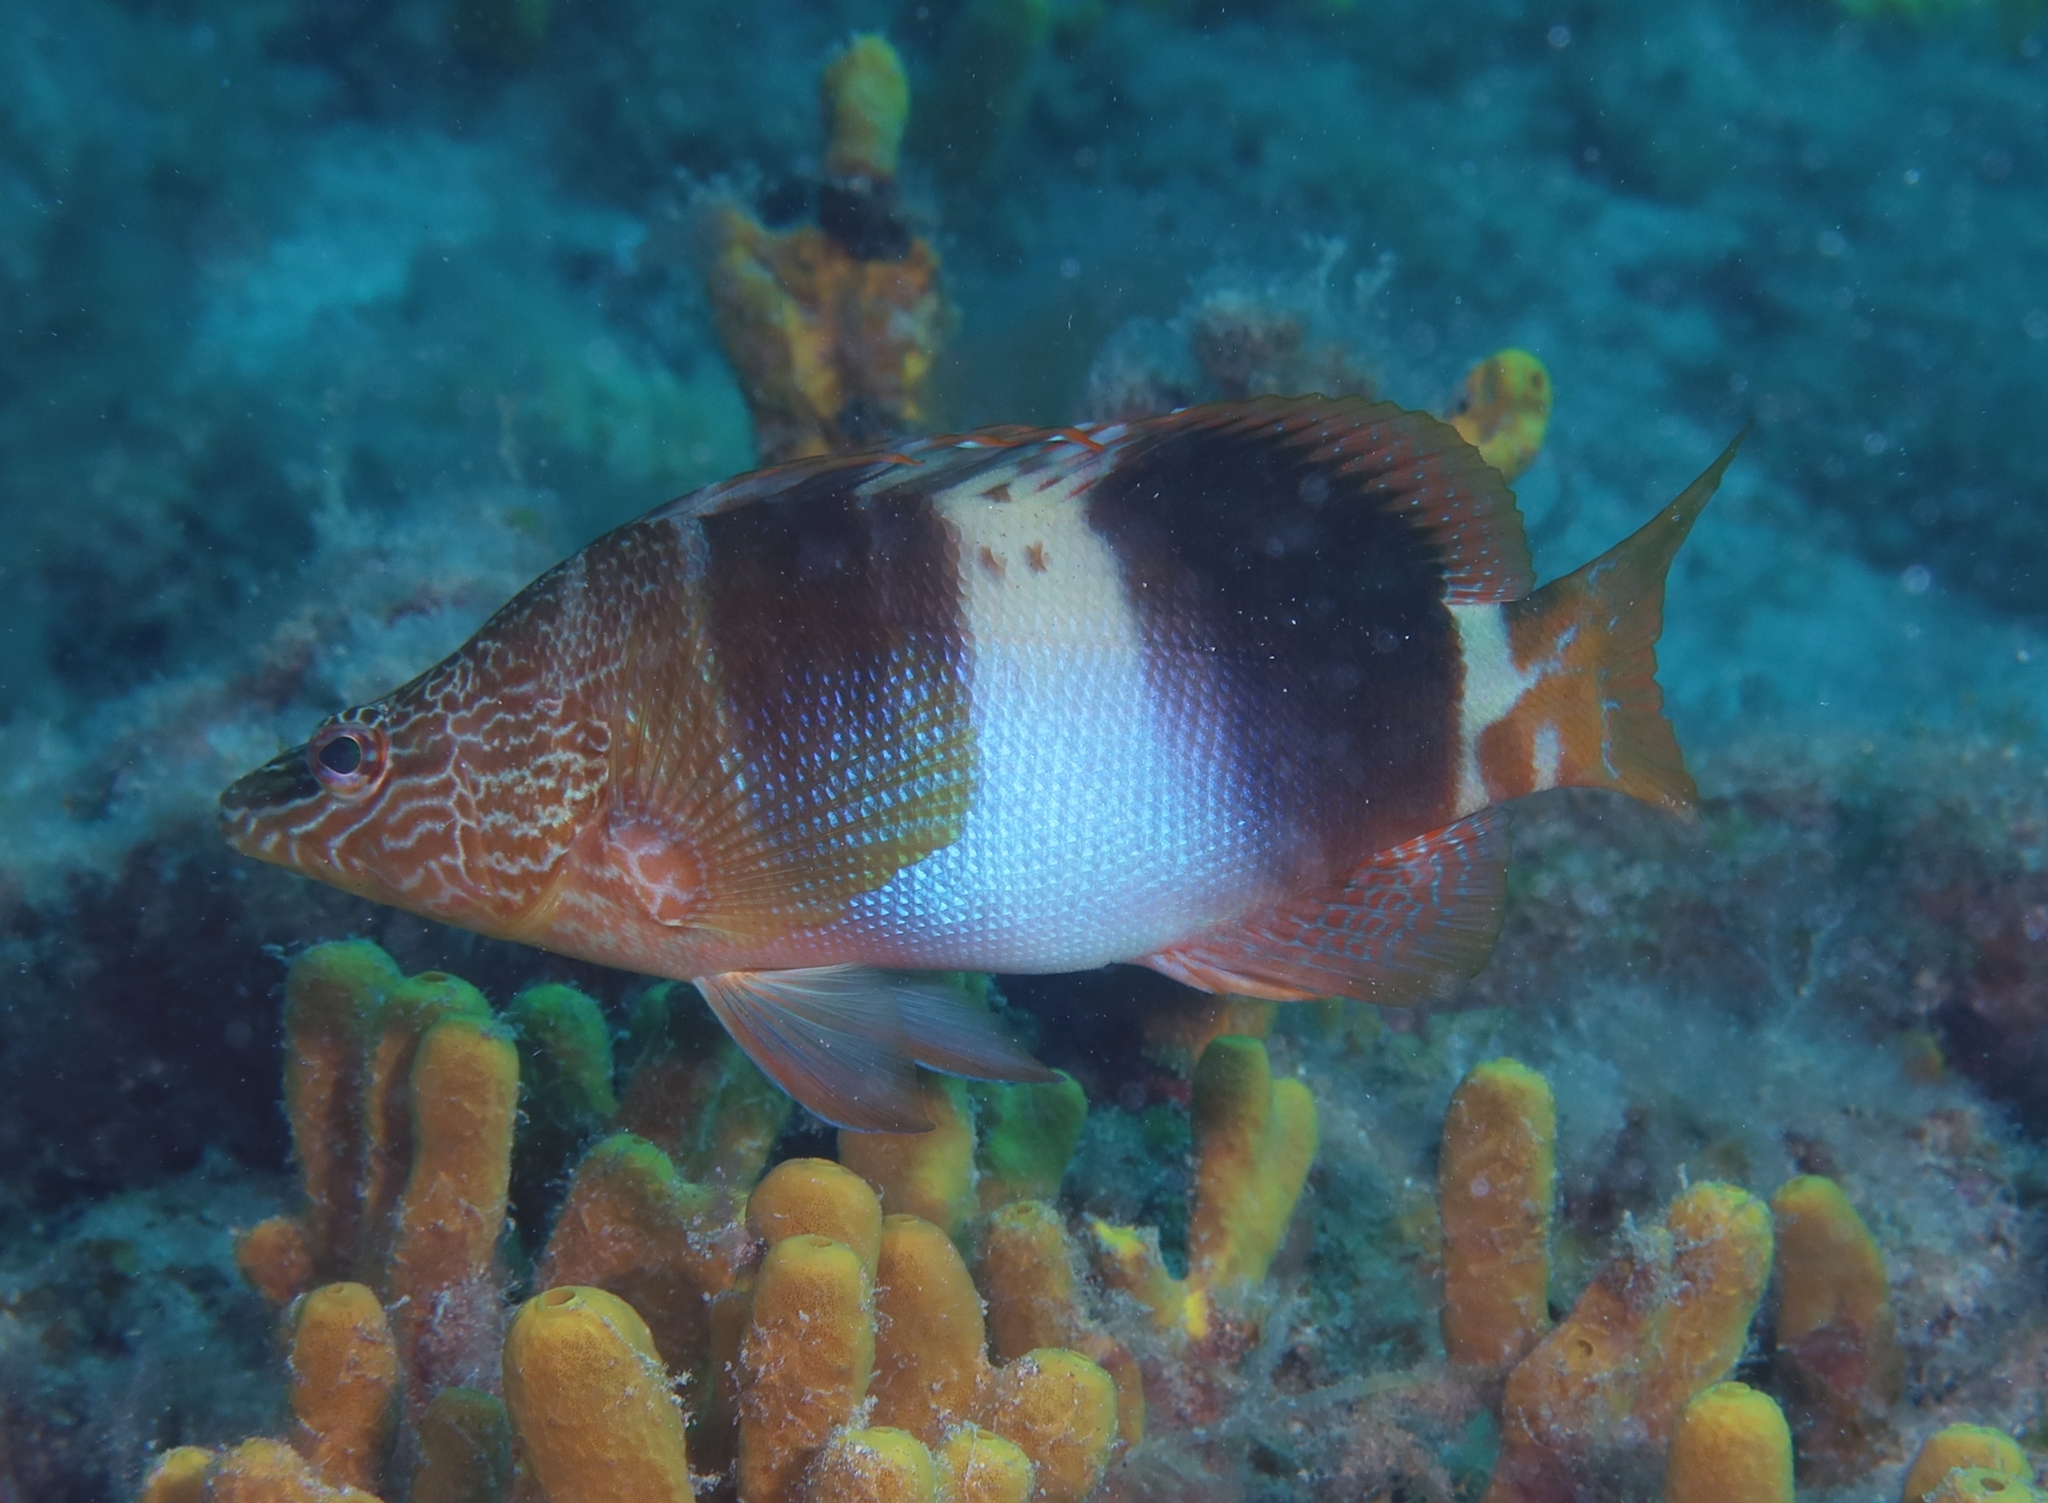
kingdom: Animalia
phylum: Chordata
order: Perciformes
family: Serranidae
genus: Serranus
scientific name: Serranus scriba
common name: Painted comber
